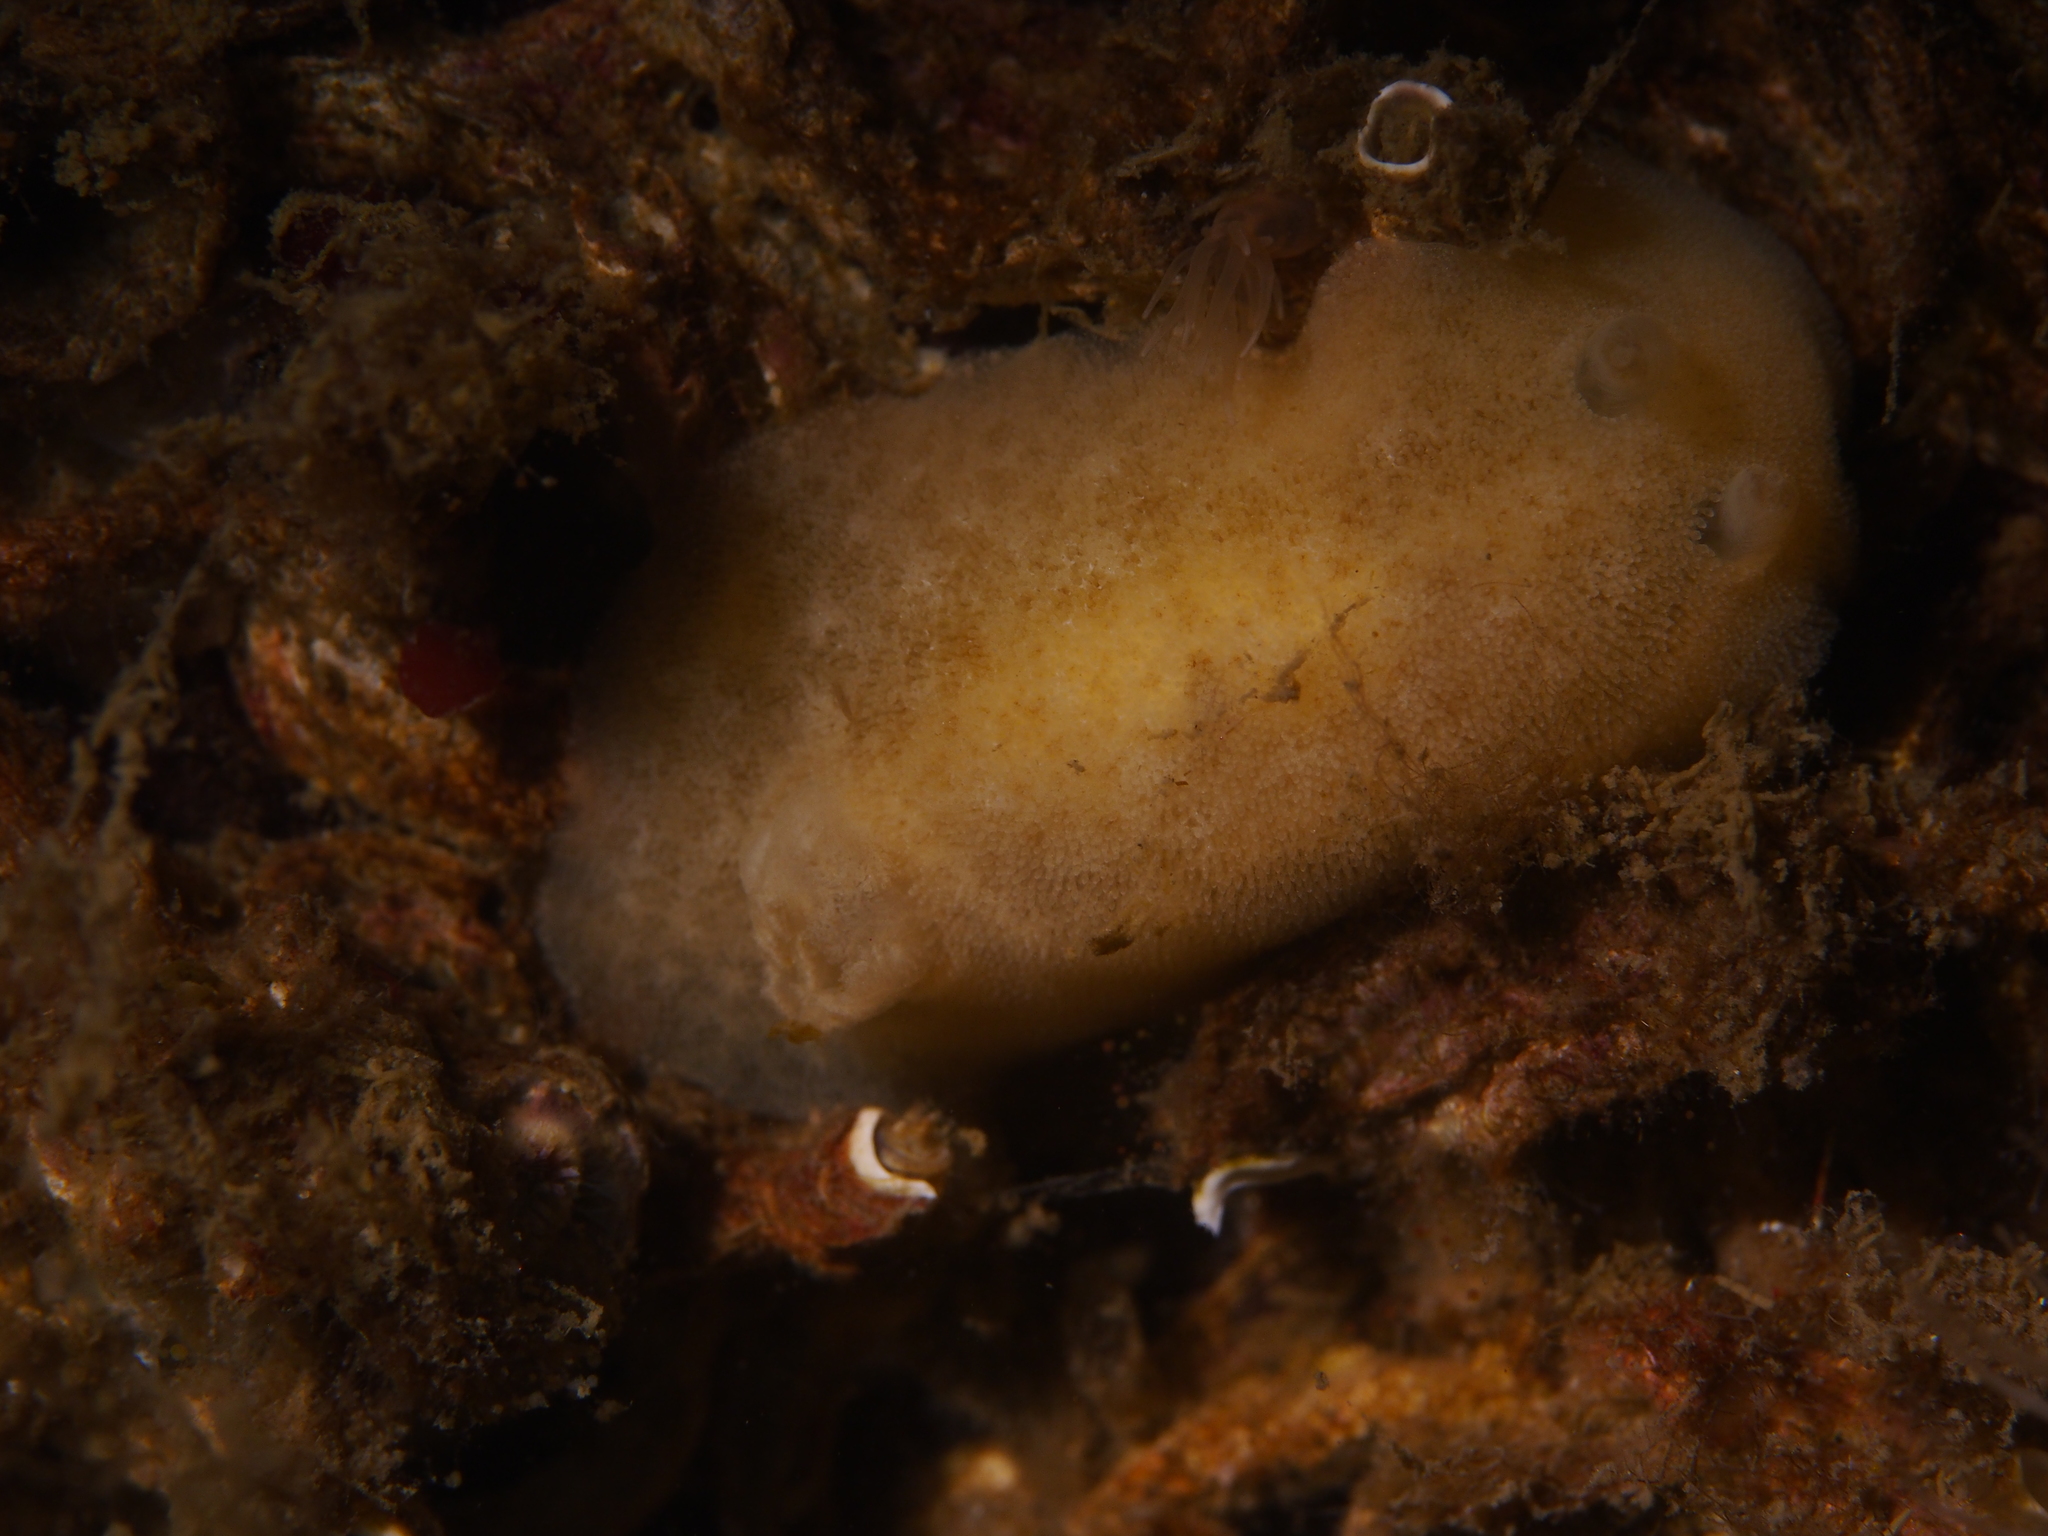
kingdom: Animalia
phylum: Mollusca
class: Gastropoda
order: Nudibranchia
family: Discodorididae
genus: Jorunna
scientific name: Jorunna tomentosa
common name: Grey sea slug
